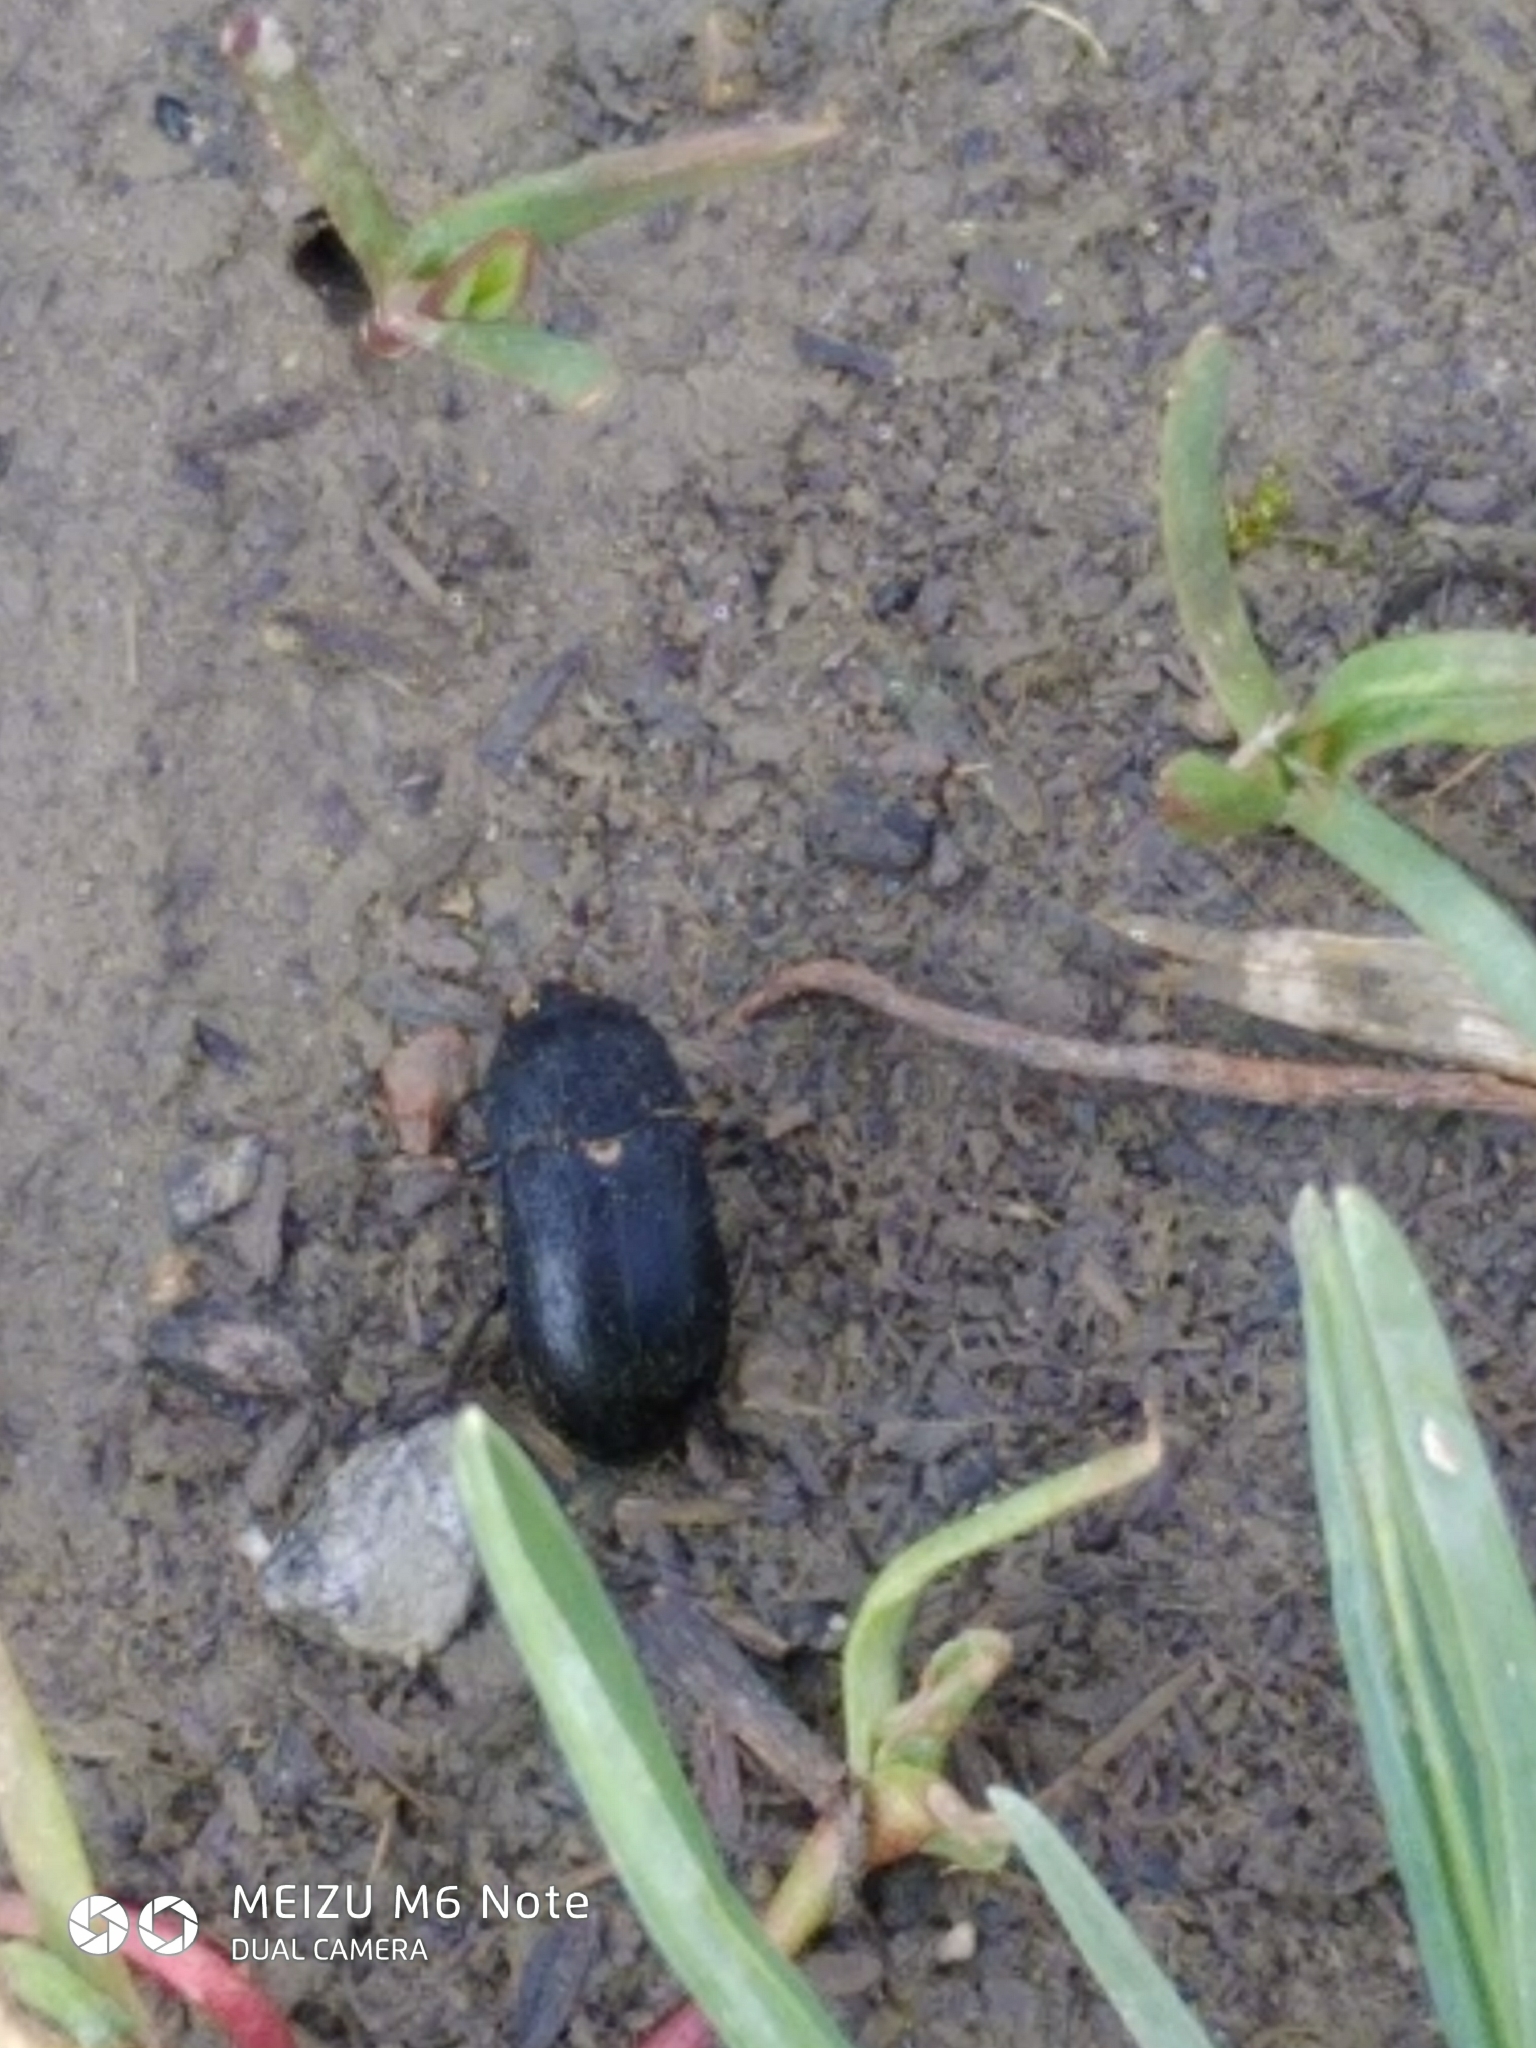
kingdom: Animalia
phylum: Arthropoda
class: Insecta
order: Coleoptera
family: Dermestidae
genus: Dermestes
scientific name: Dermestes laniarius
